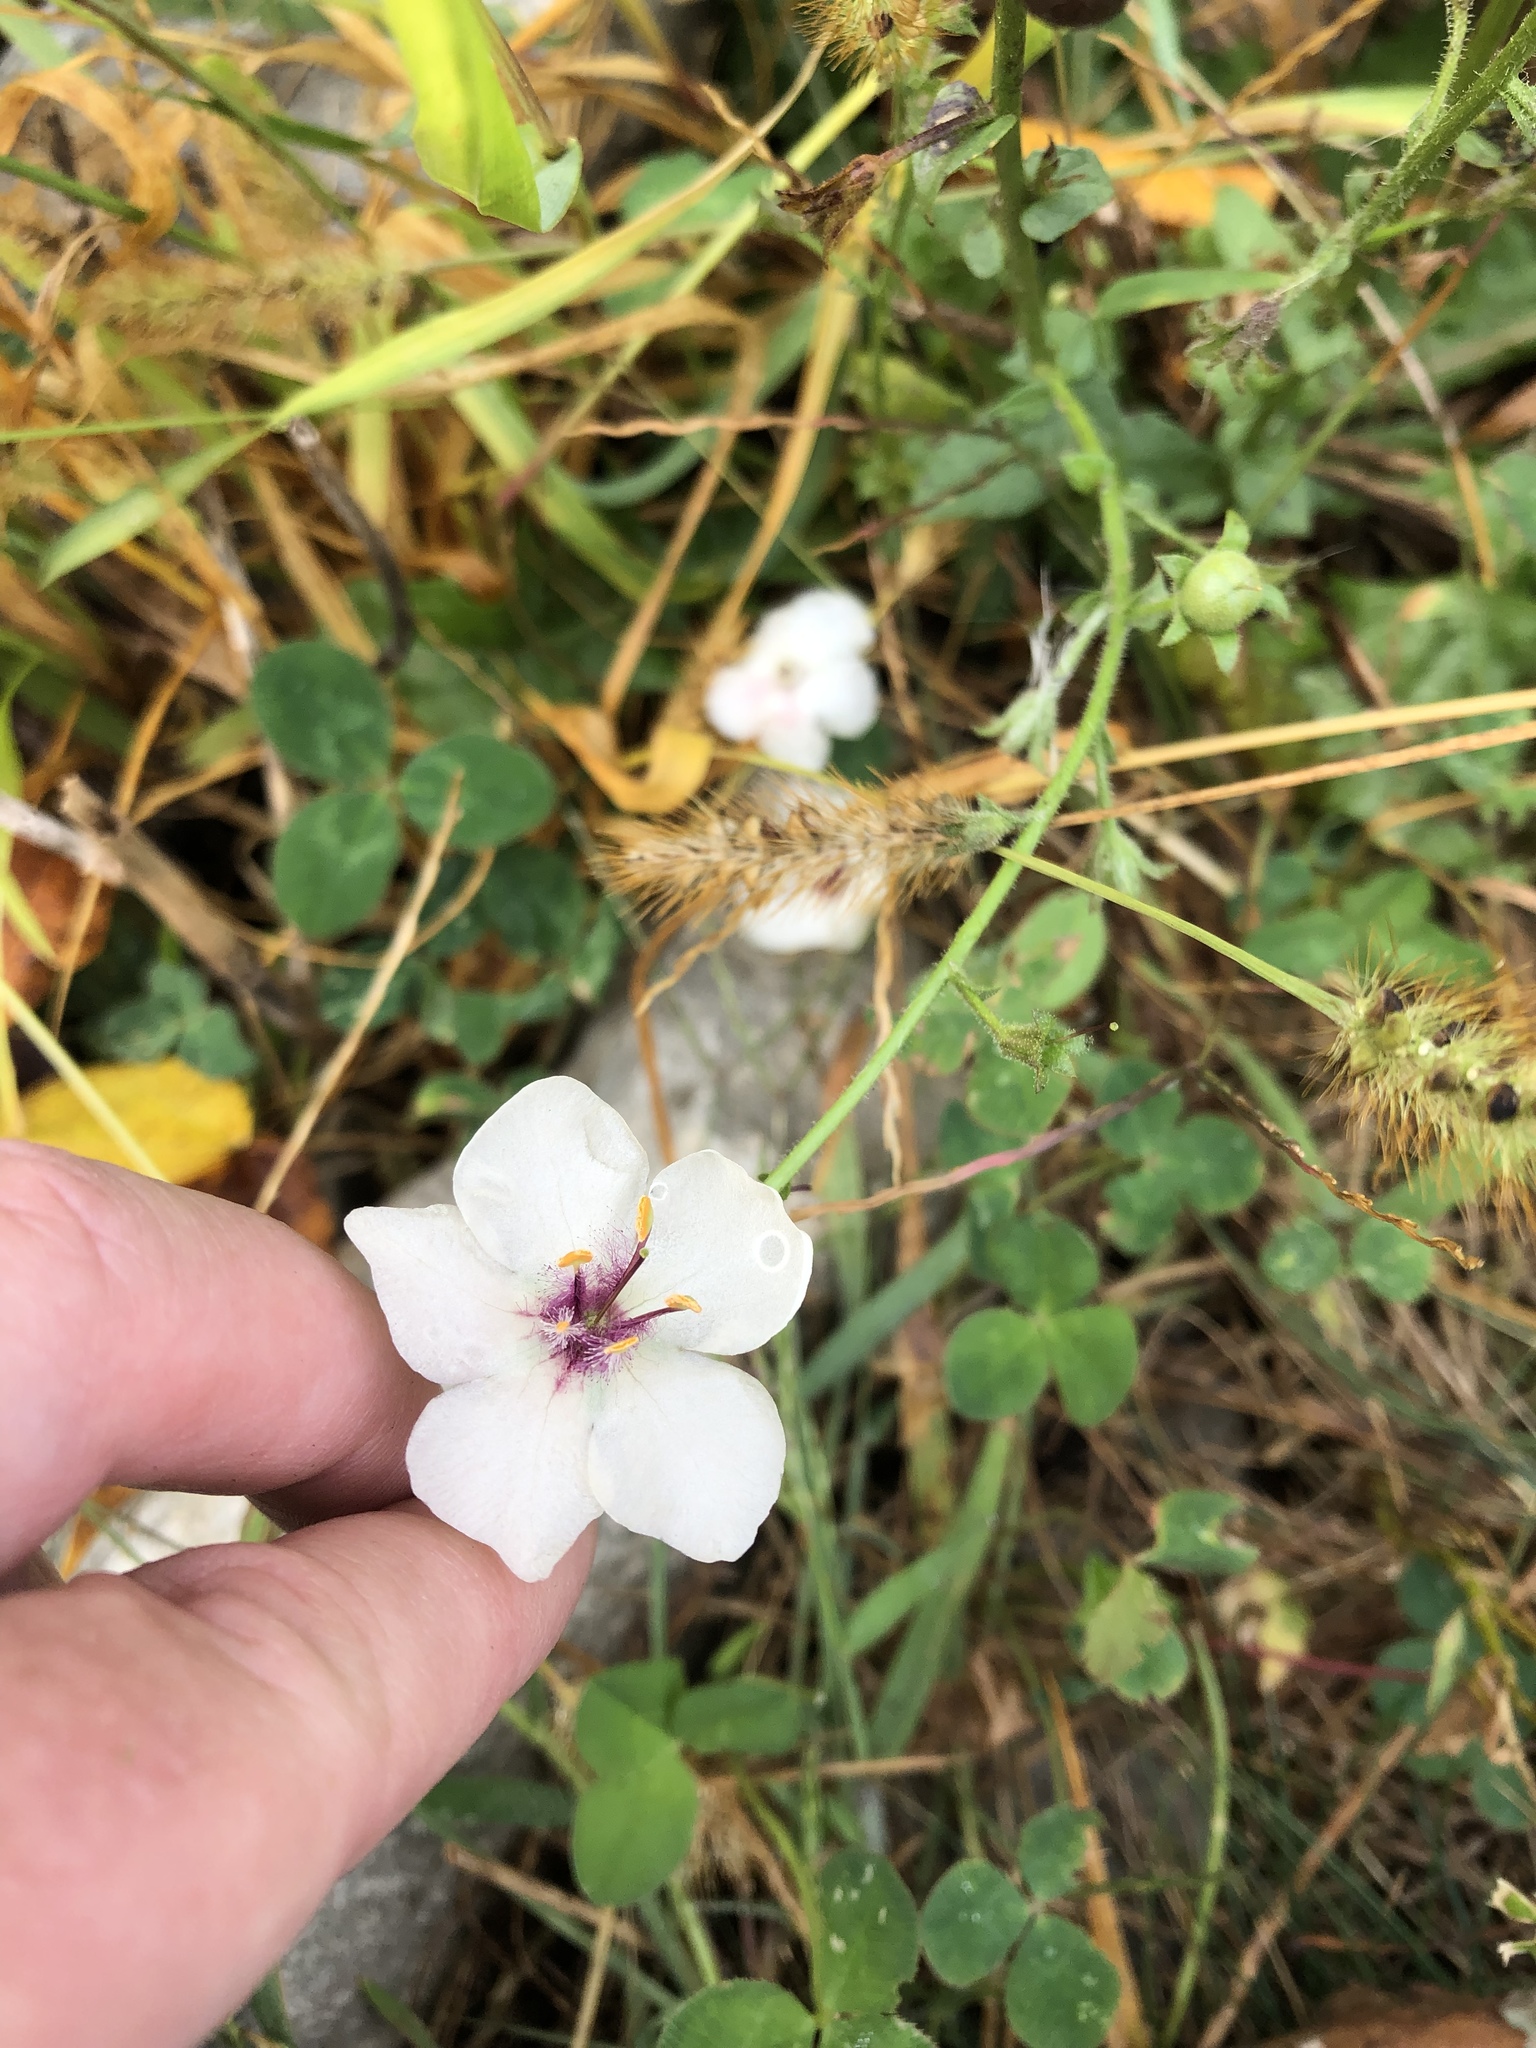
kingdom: Plantae
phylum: Tracheophyta
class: Magnoliopsida
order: Lamiales
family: Scrophulariaceae
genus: Verbascum
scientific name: Verbascum blattaria
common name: Moth mullein
